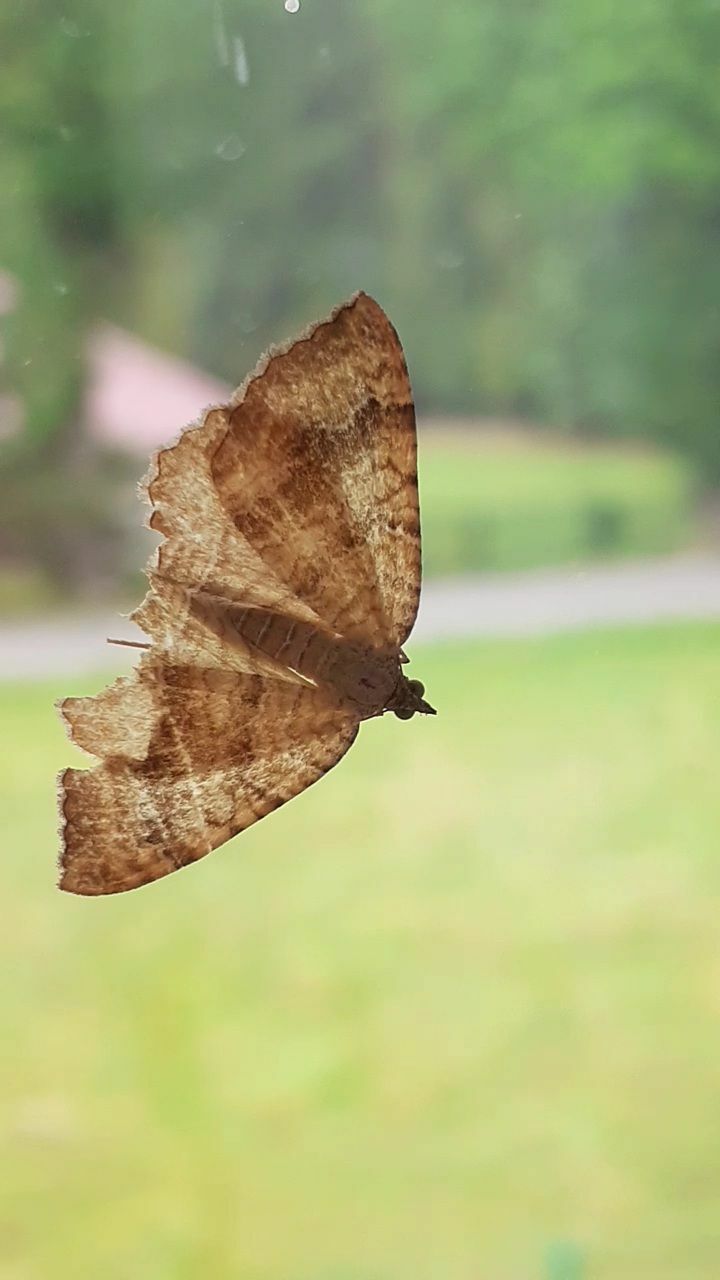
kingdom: Animalia
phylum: Arthropoda
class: Insecta
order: Lepidoptera
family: Geometridae
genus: Camptogramma
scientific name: Camptogramma bilineata
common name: Yellow shell
